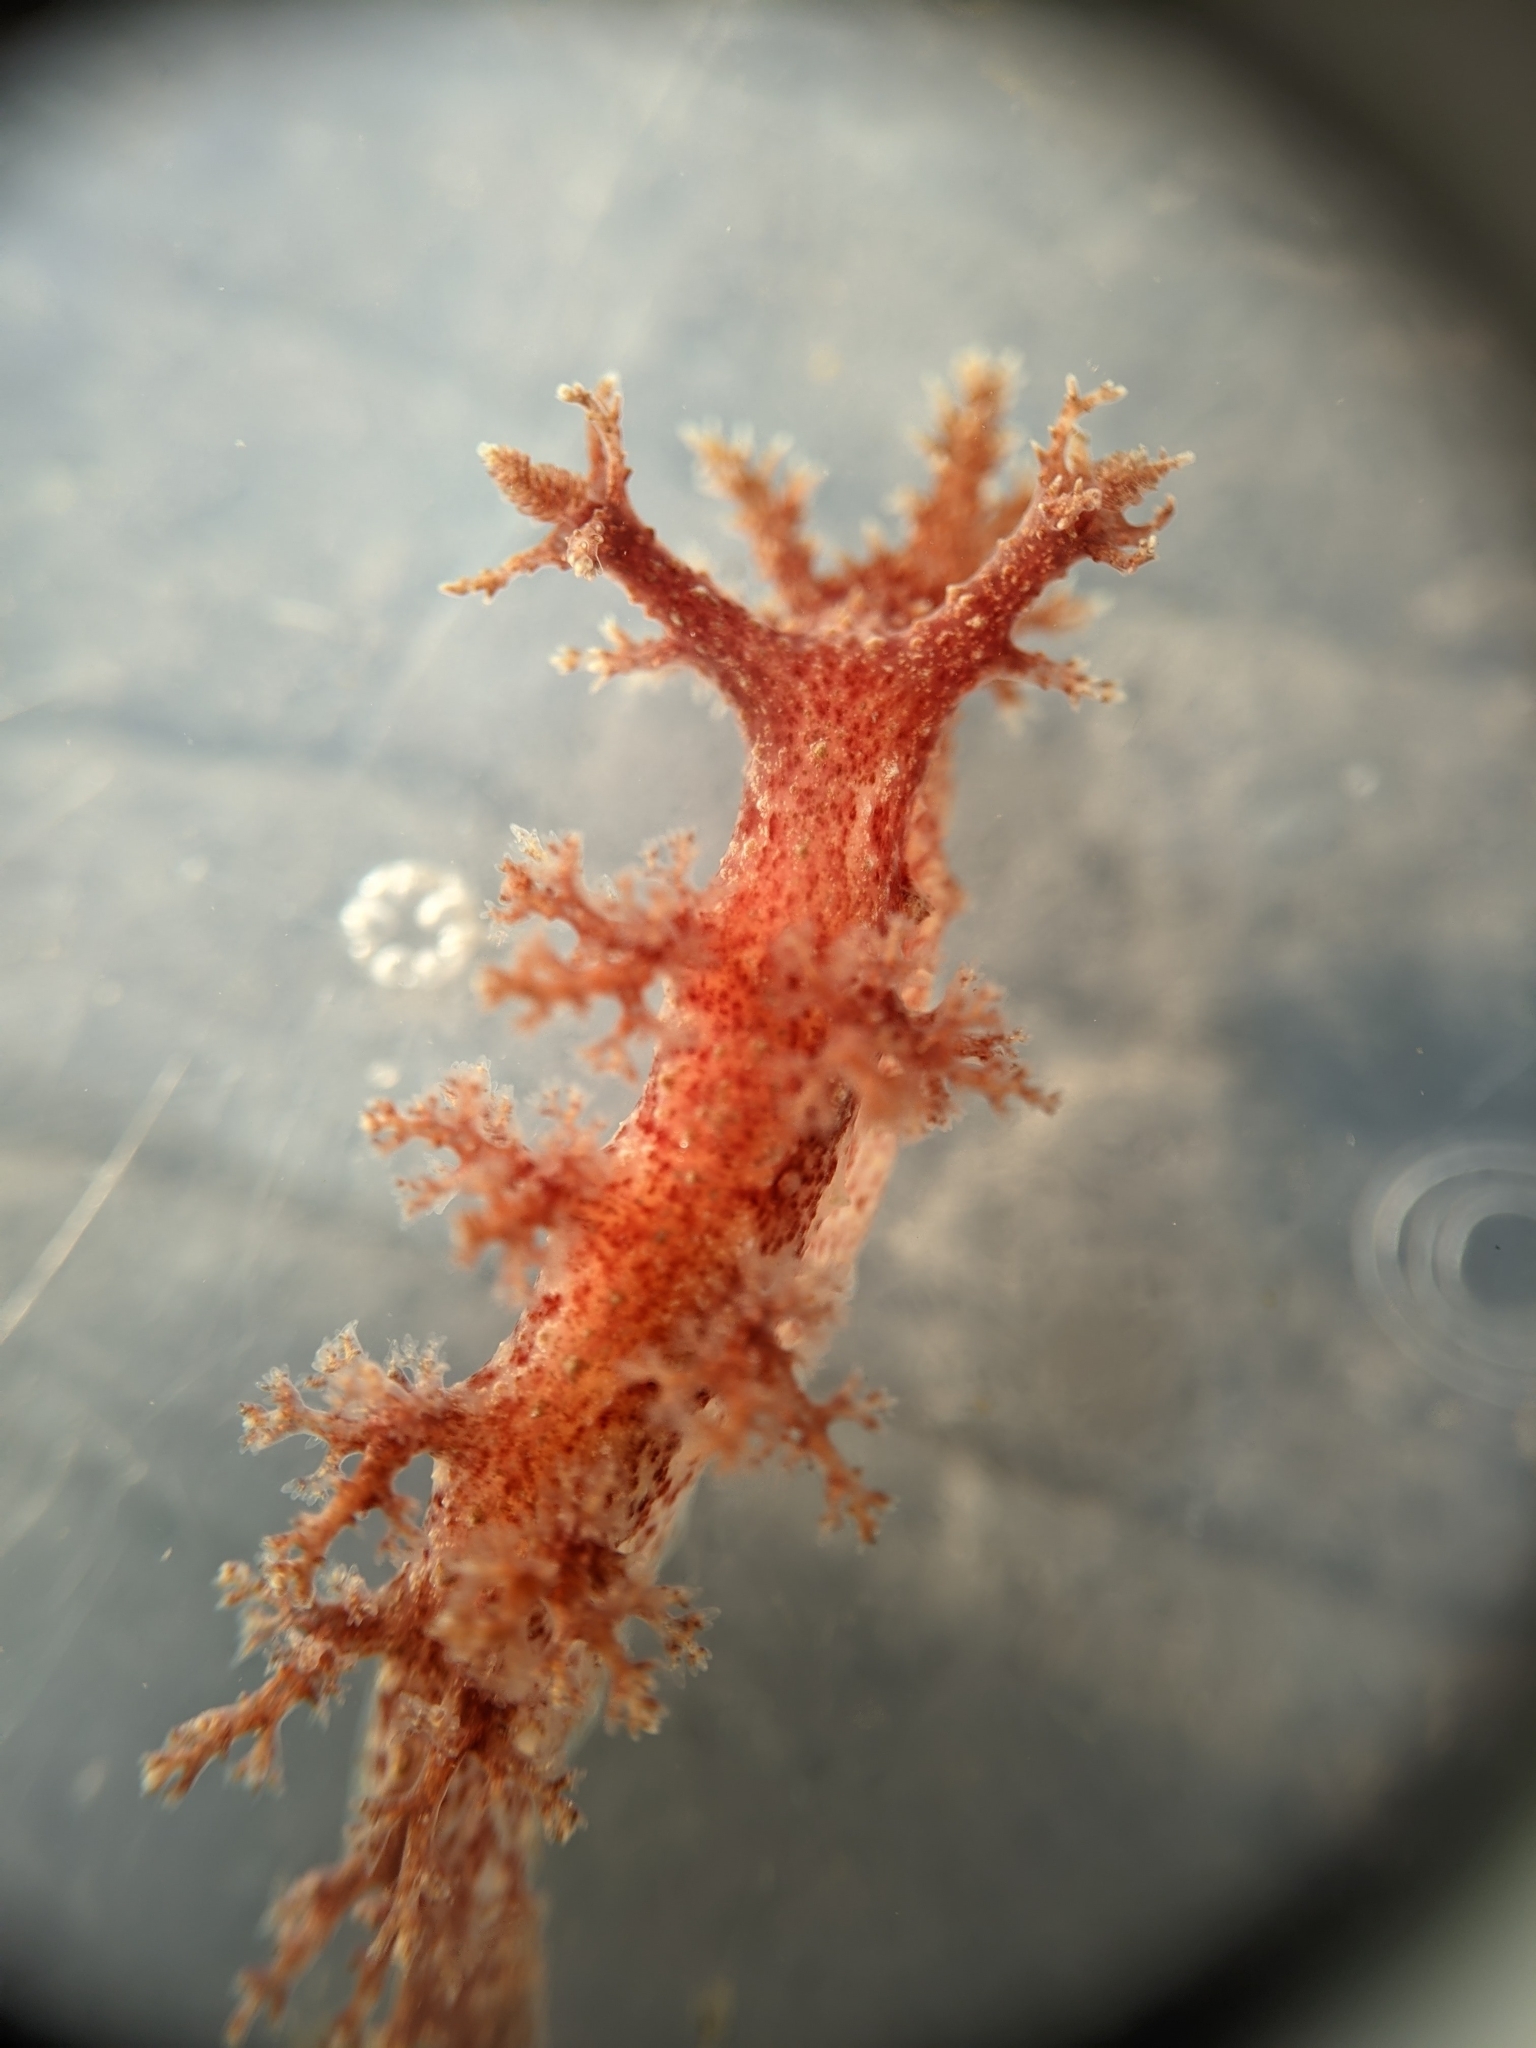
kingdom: Animalia
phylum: Mollusca
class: Gastropoda
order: Nudibranchia
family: Dendronotidae
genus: Dendronotus
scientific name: Dendronotus venustus
